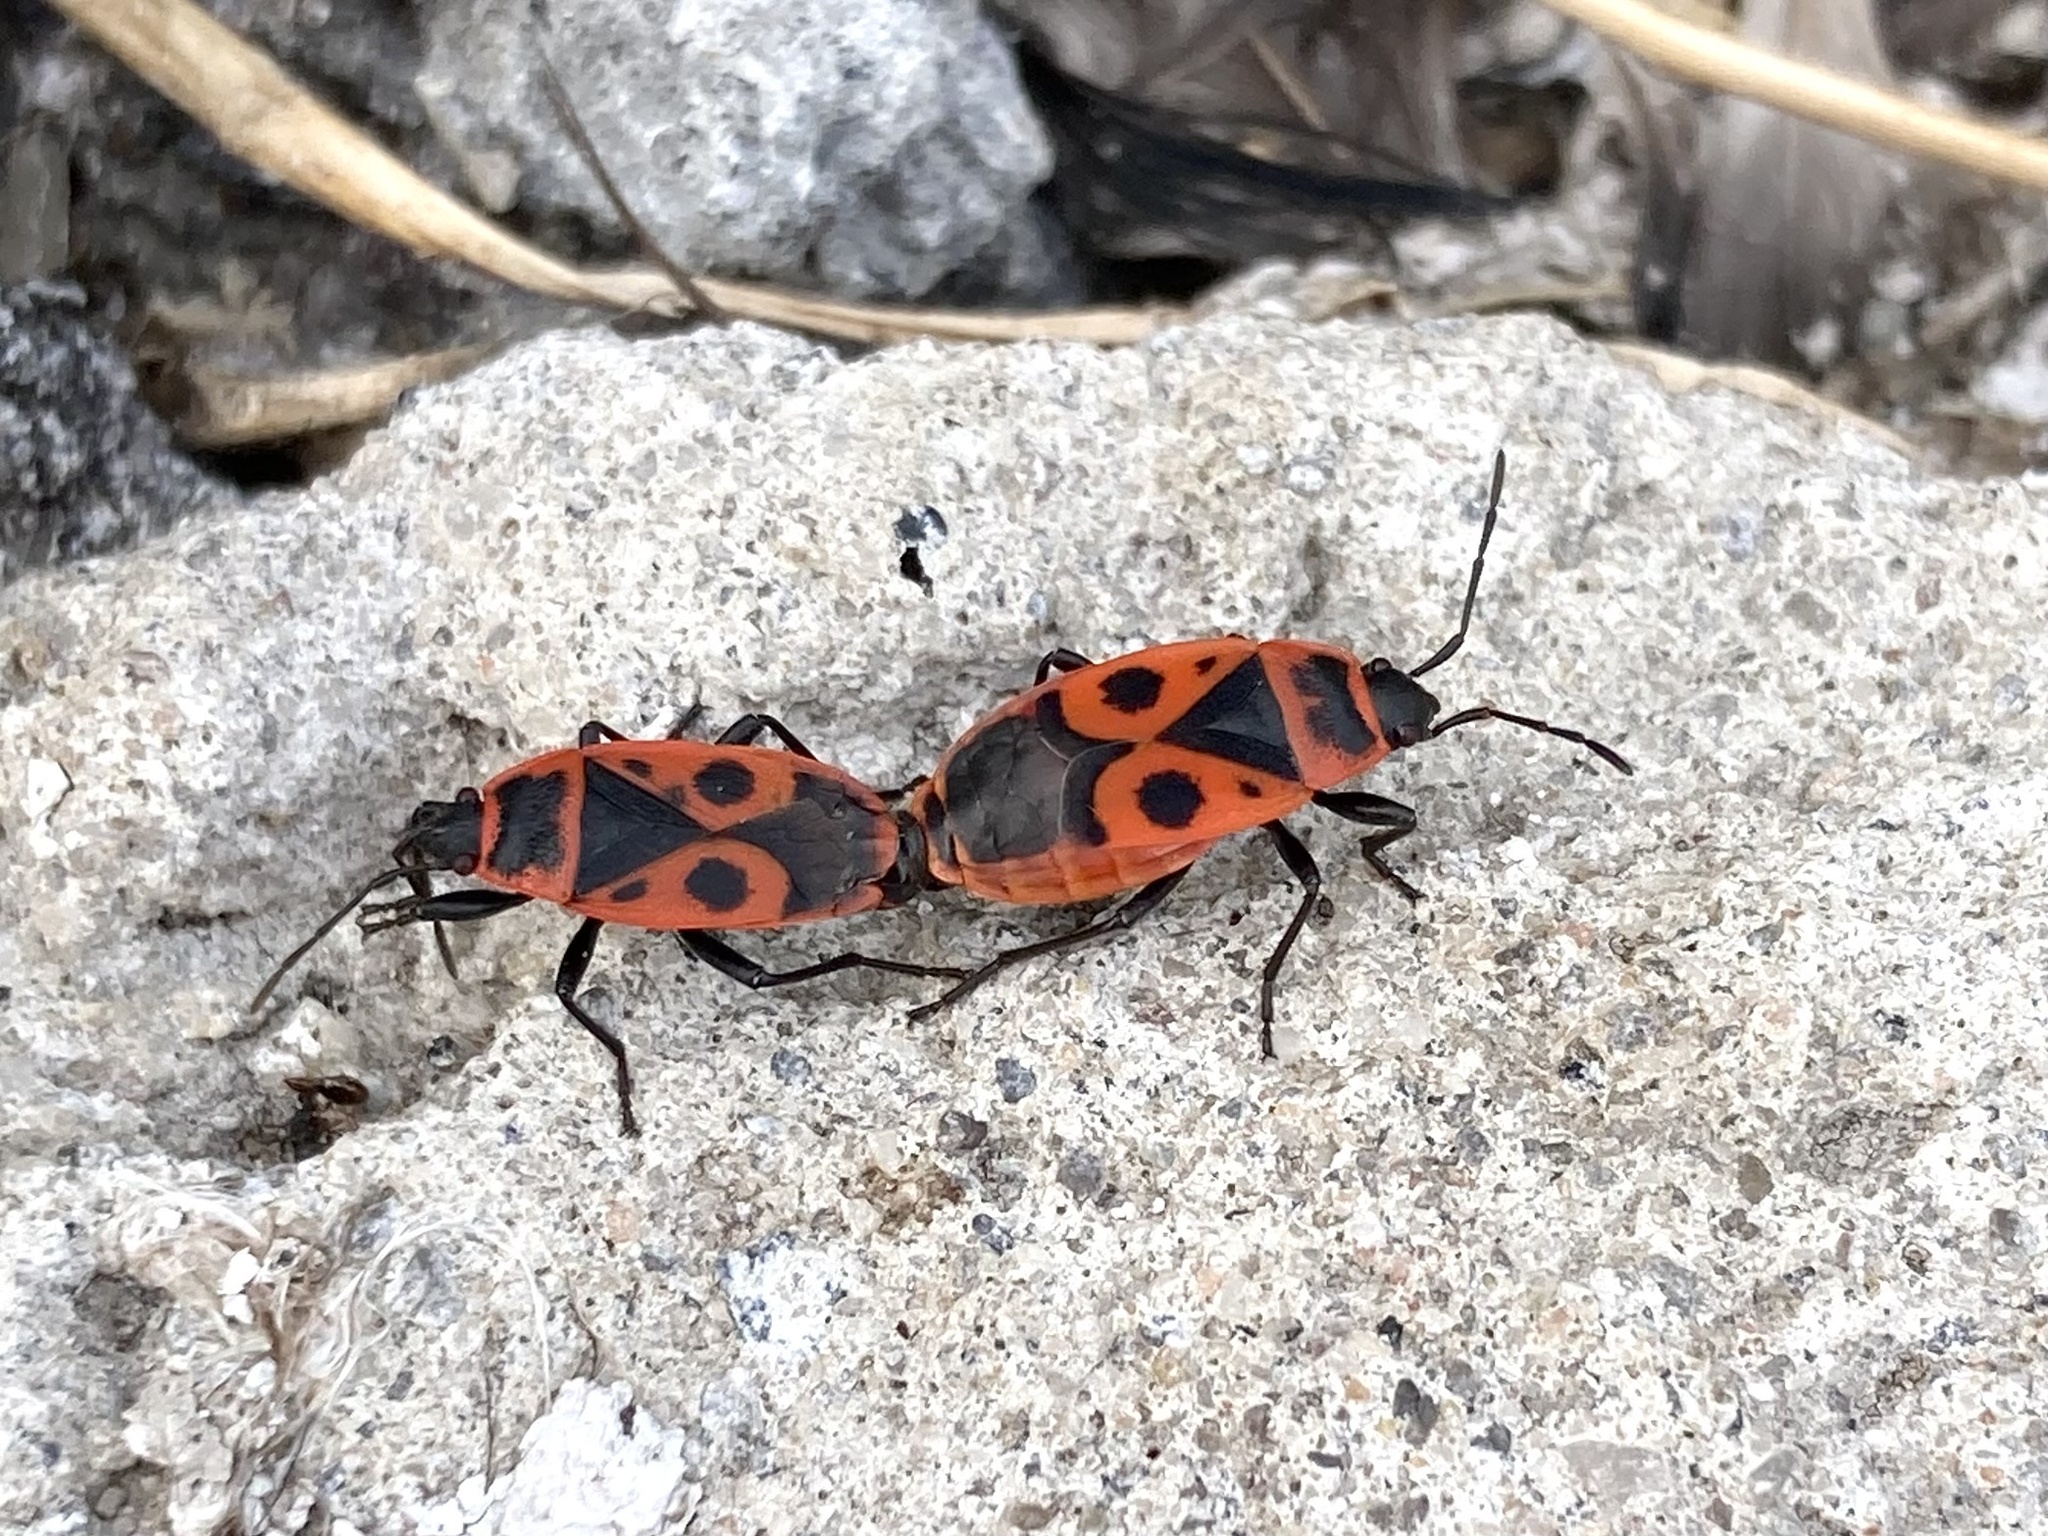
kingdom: Animalia
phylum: Arthropoda
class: Insecta
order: Hemiptera
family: Pyrrhocoridae
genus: Pyrrhocoris
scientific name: Pyrrhocoris apterus
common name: Firebug
